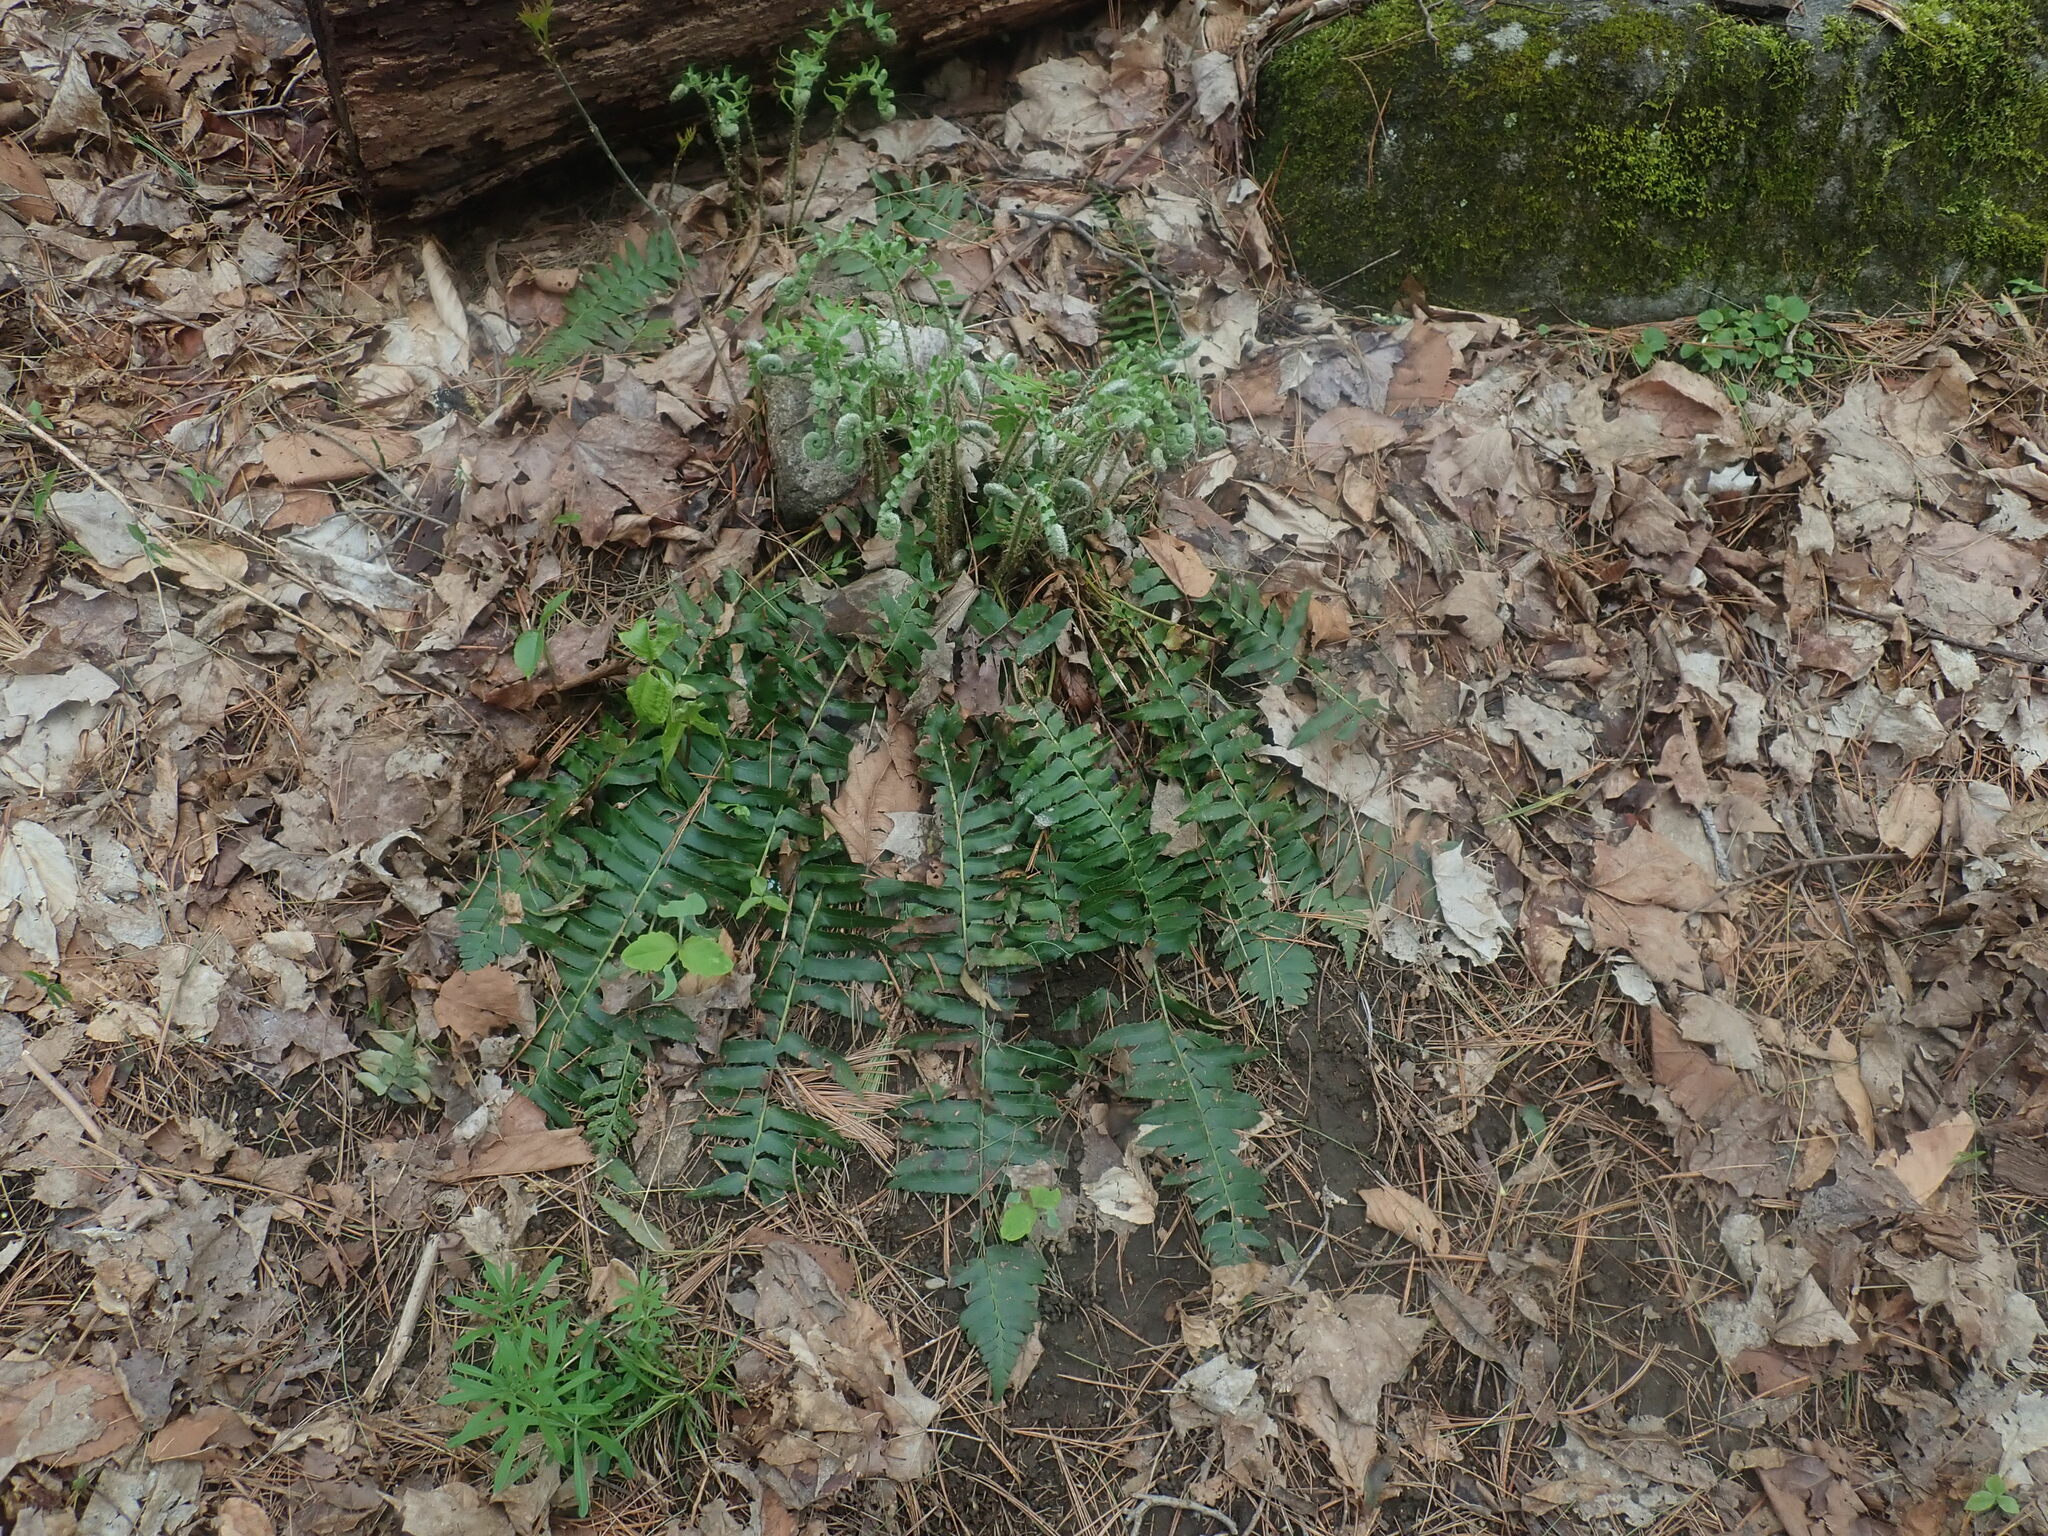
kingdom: Plantae
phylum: Tracheophyta
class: Polypodiopsida
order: Polypodiales
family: Dryopteridaceae
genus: Polystichum
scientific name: Polystichum acrostichoides
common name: Christmas fern
